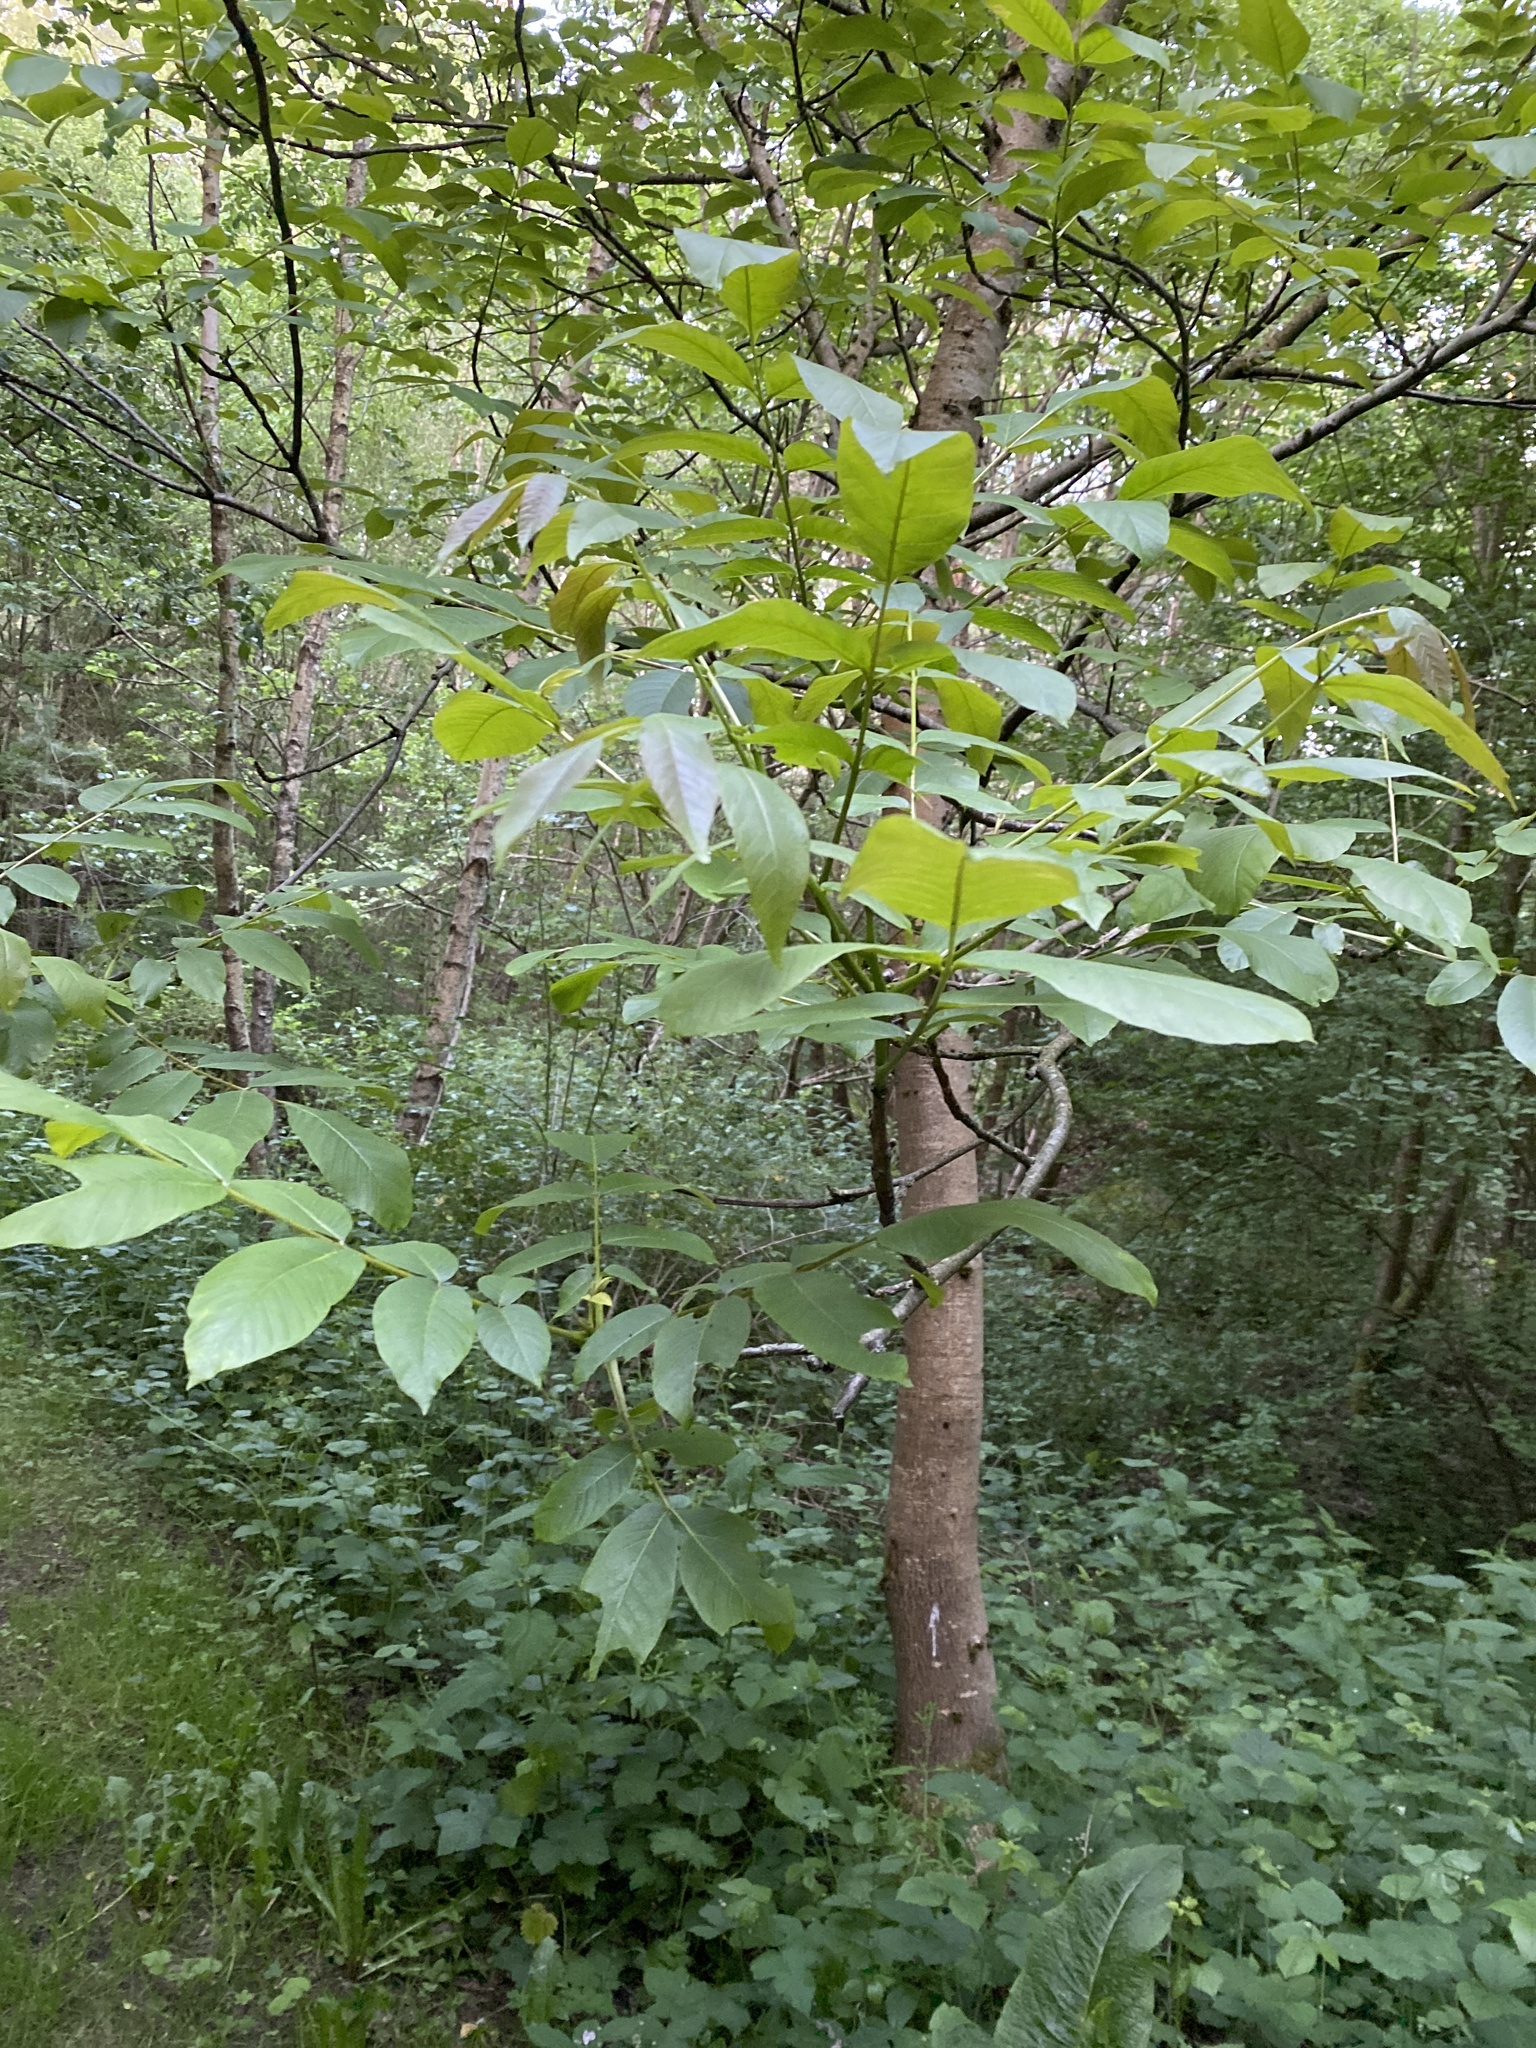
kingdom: Plantae
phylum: Tracheophyta
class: Magnoliopsida
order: Fagales
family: Juglandaceae
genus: Juglans
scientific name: Juglans regia
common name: Walnut
